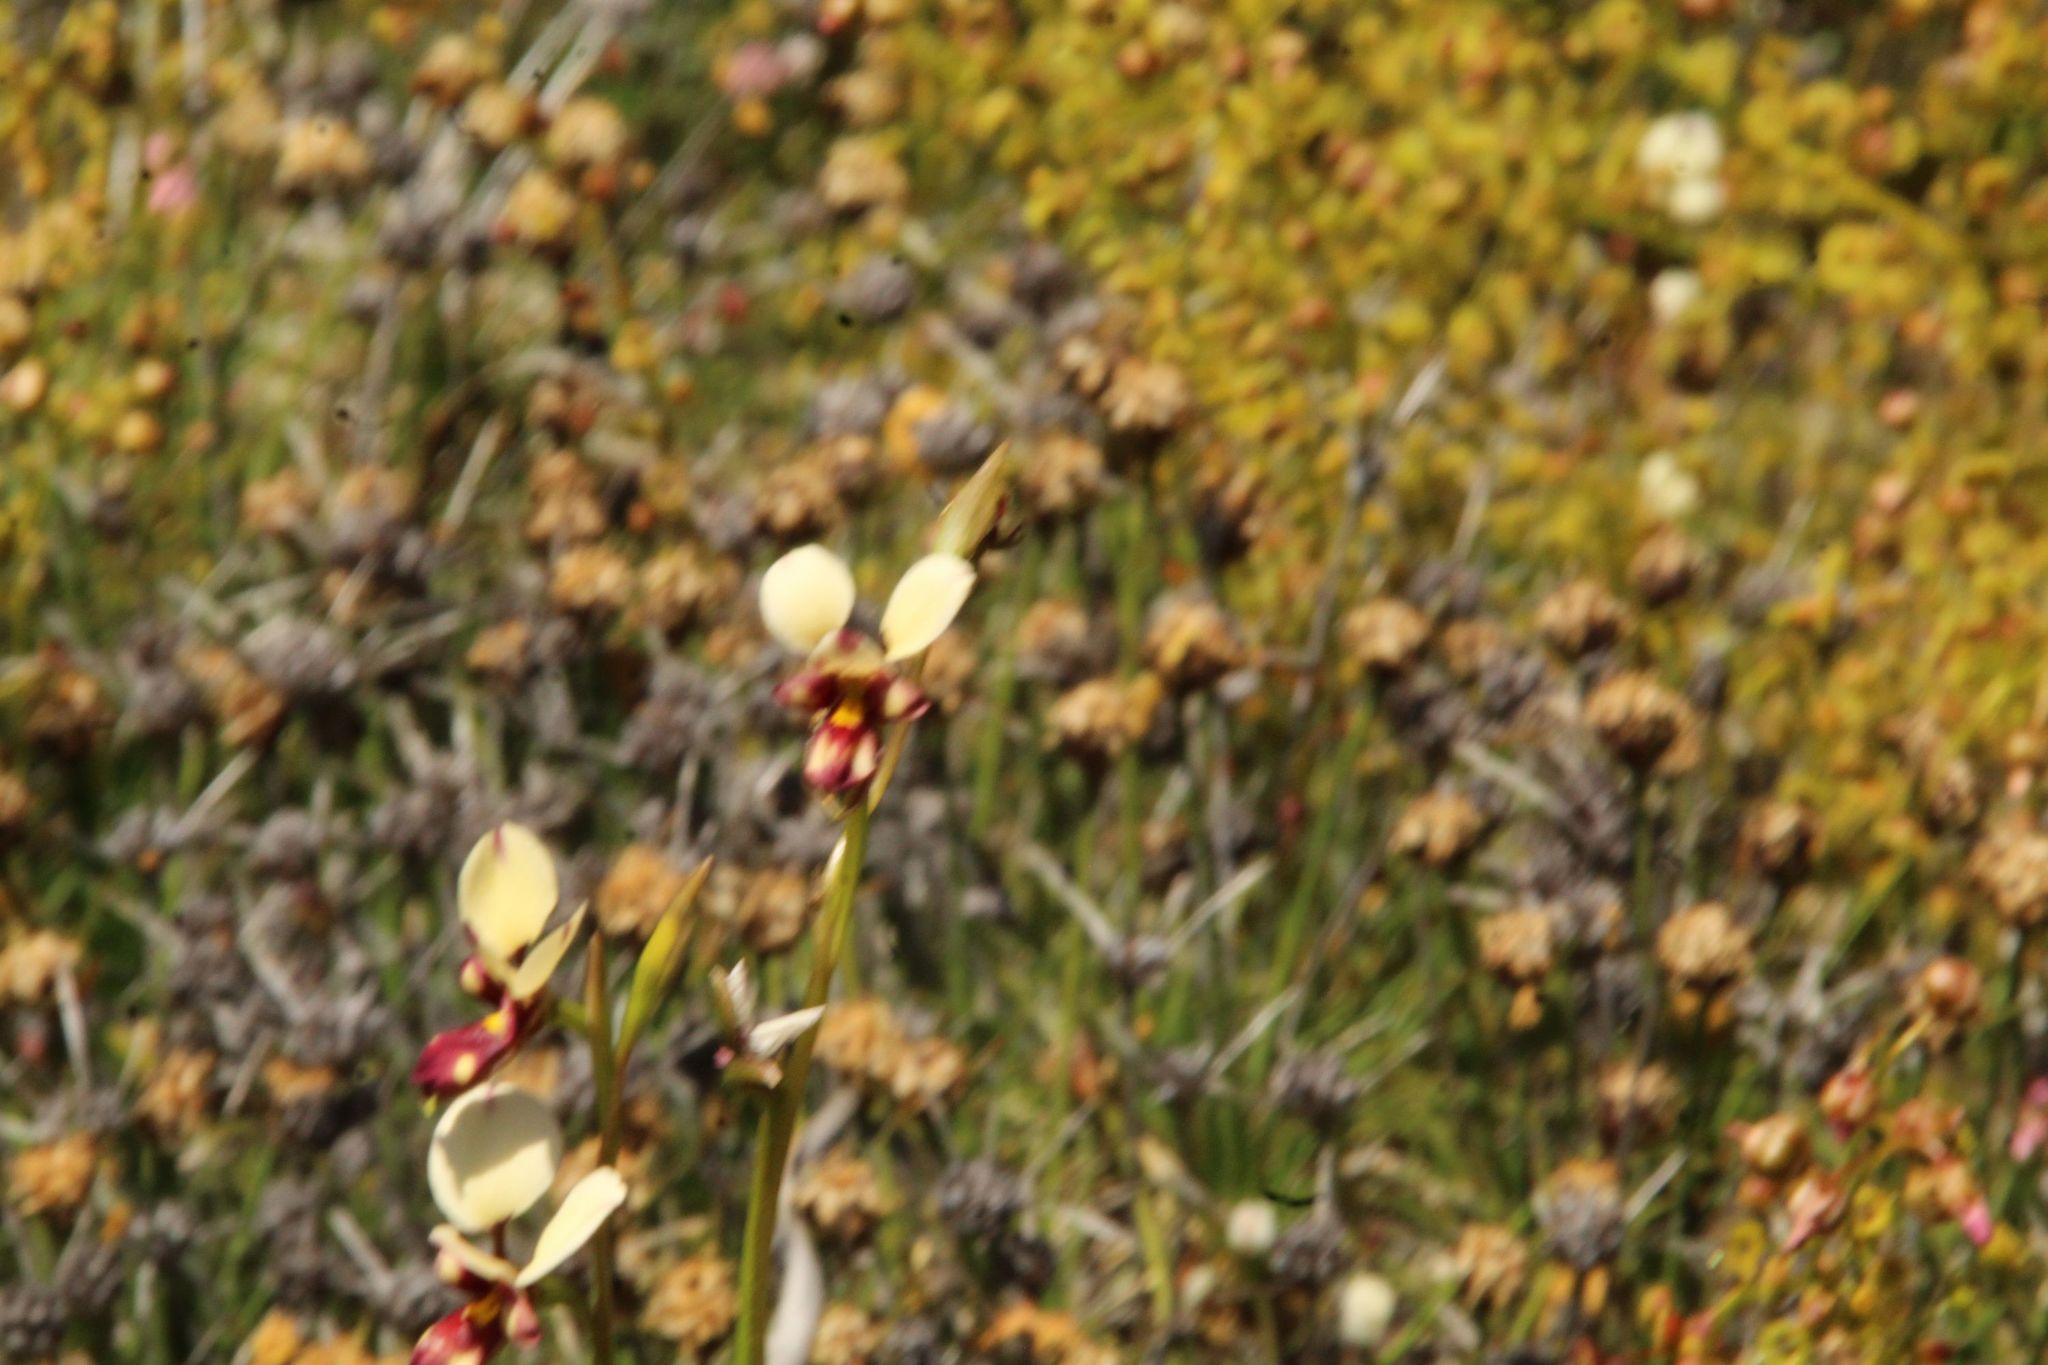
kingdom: Plantae
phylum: Tracheophyta
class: Liliopsida
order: Asparagales
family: Orchidaceae
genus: Diuris
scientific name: Diuris picta
